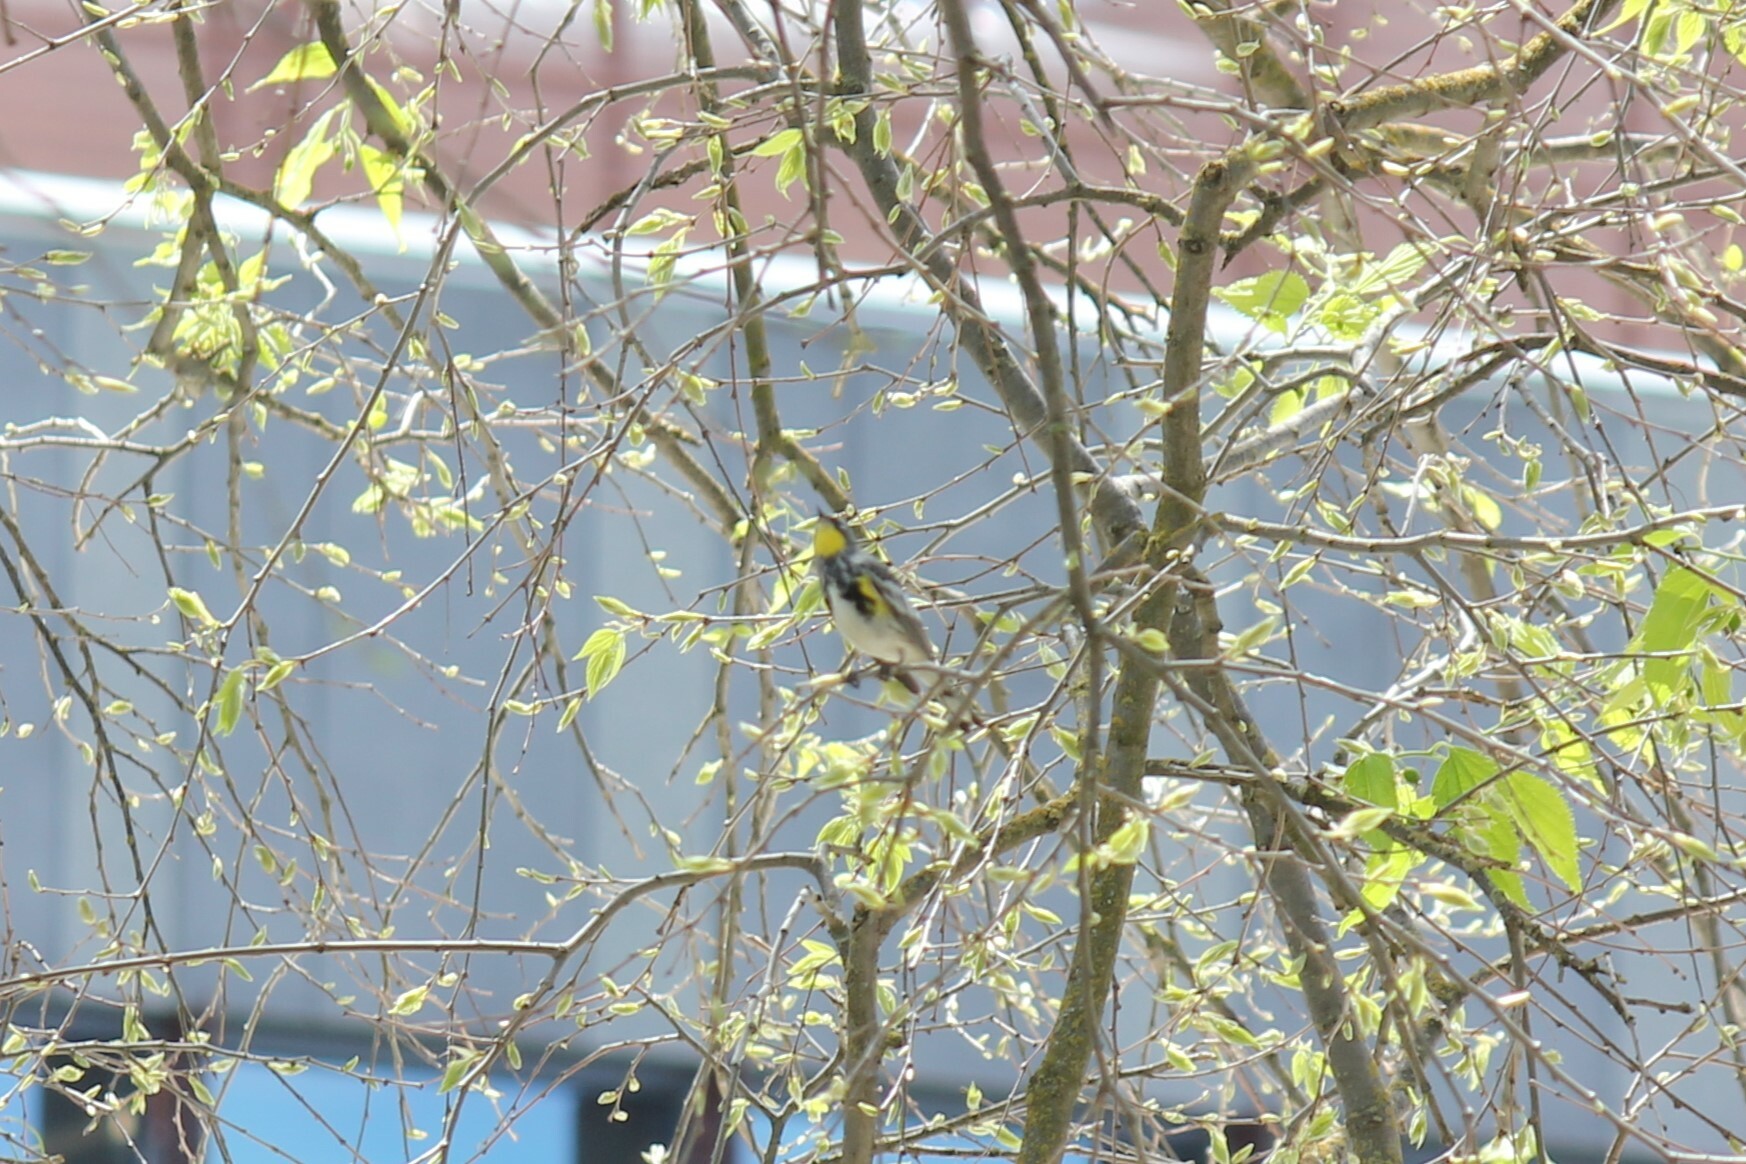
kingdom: Animalia
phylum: Chordata
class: Aves
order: Passeriformes
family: Parulidae
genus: Setophaga
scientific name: Setophaga coronata
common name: Myrtle warbler
